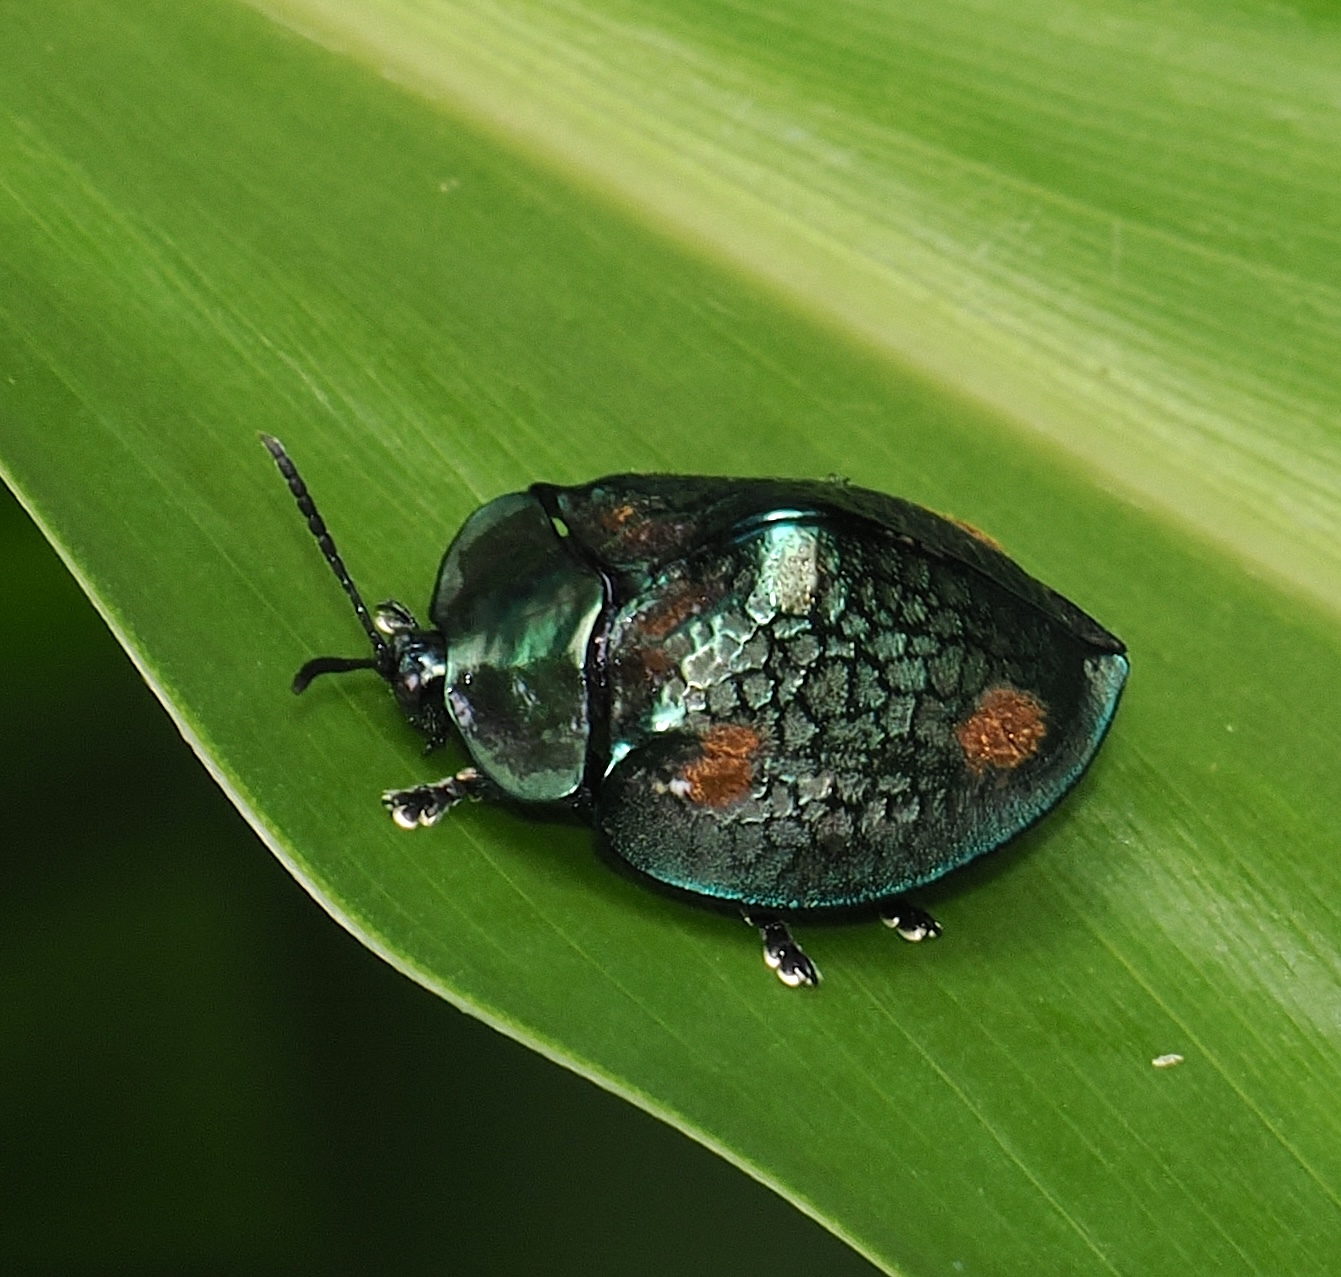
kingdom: Animalia
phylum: Arthropoda
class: Insecta
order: Coleoptera
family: Chrysomelidae
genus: Stolas
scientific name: Stolas areolata
